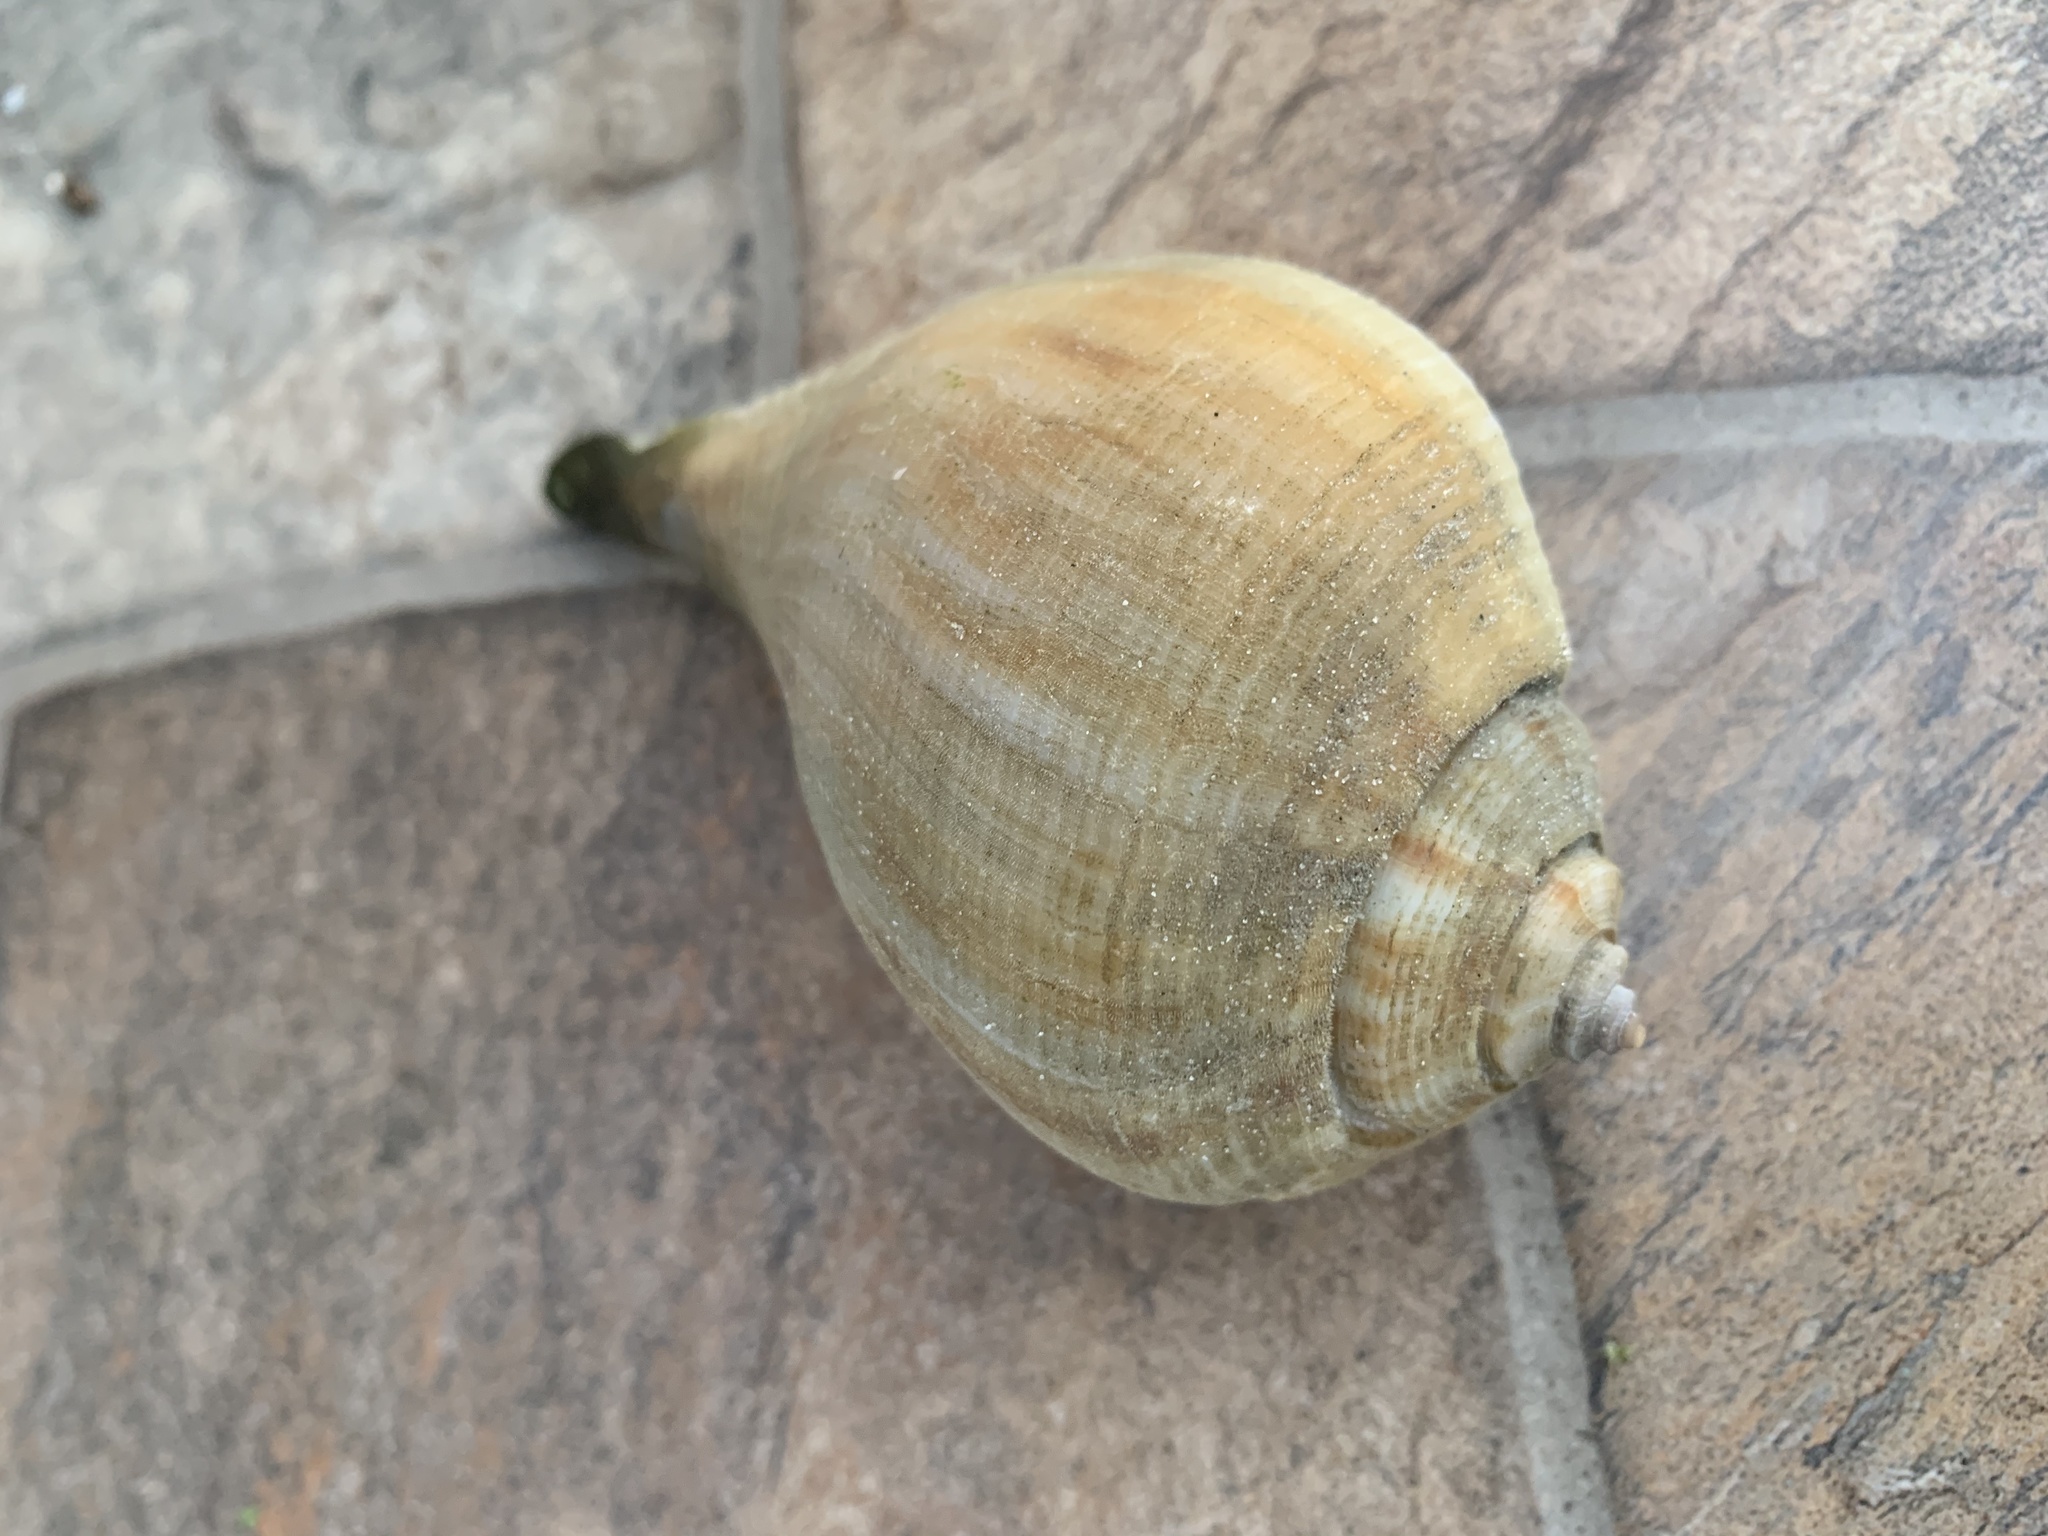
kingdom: Animalia
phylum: Mollusca
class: Gastropoda
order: Neogastropoda
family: Busyconidae
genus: Fulguropsis
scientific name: Fulguropsis pyruloides
